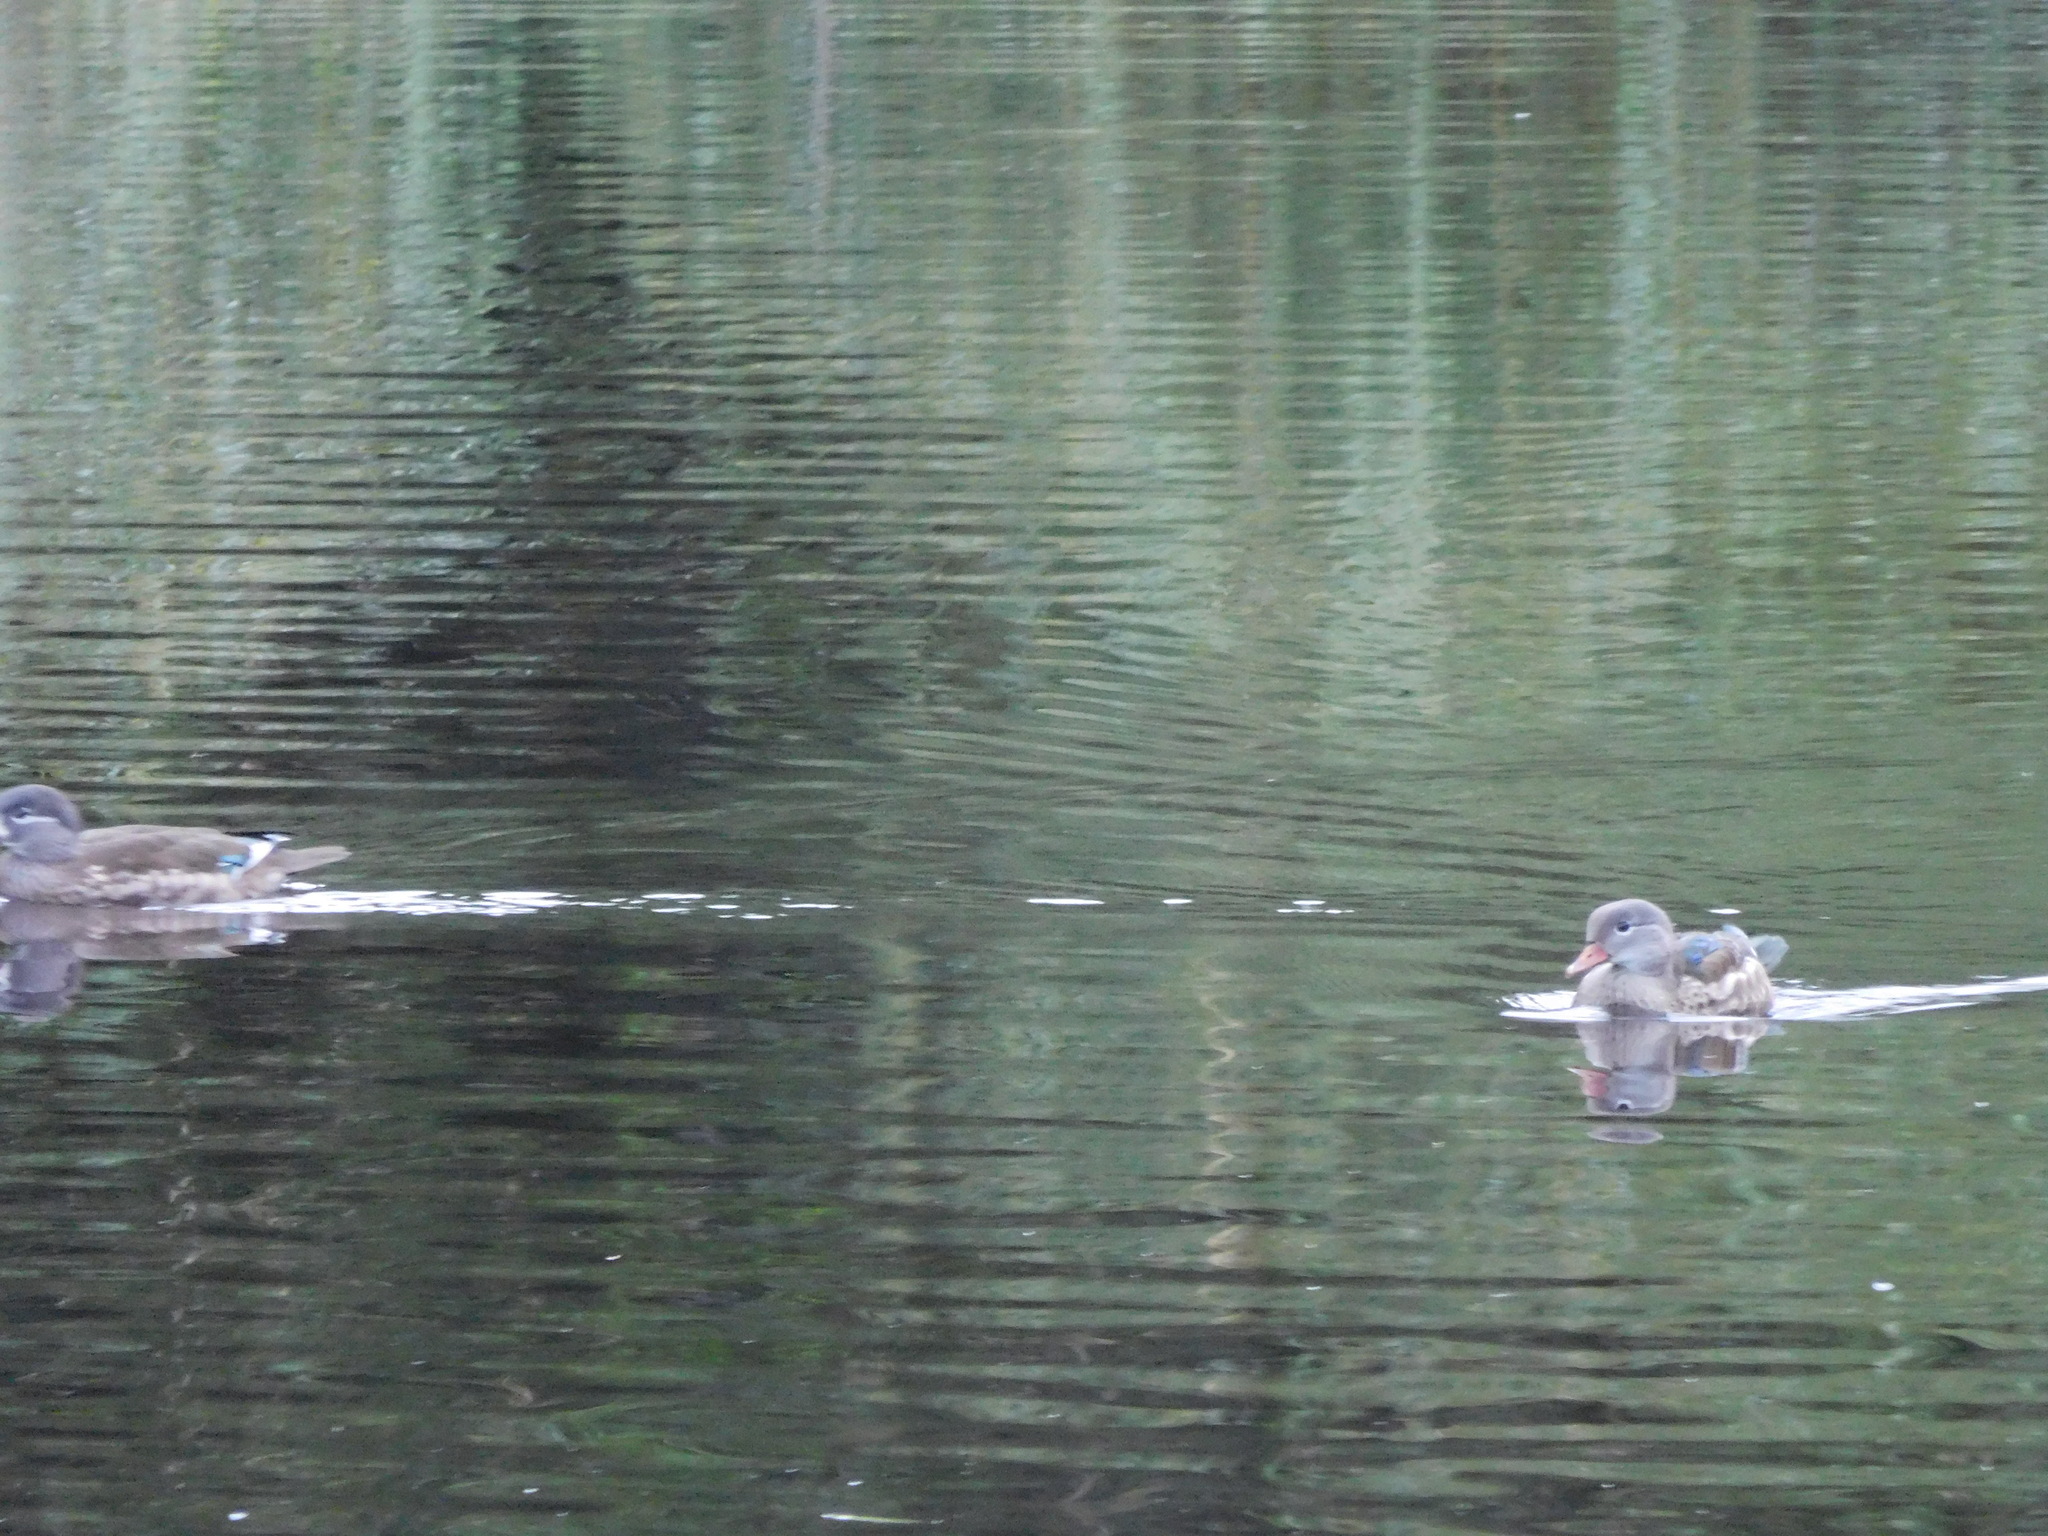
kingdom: Animalia
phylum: Chordata
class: Aves
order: Anseriformes
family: Anatidae
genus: Aix
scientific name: Aix galericulata
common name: Mandarin duck
